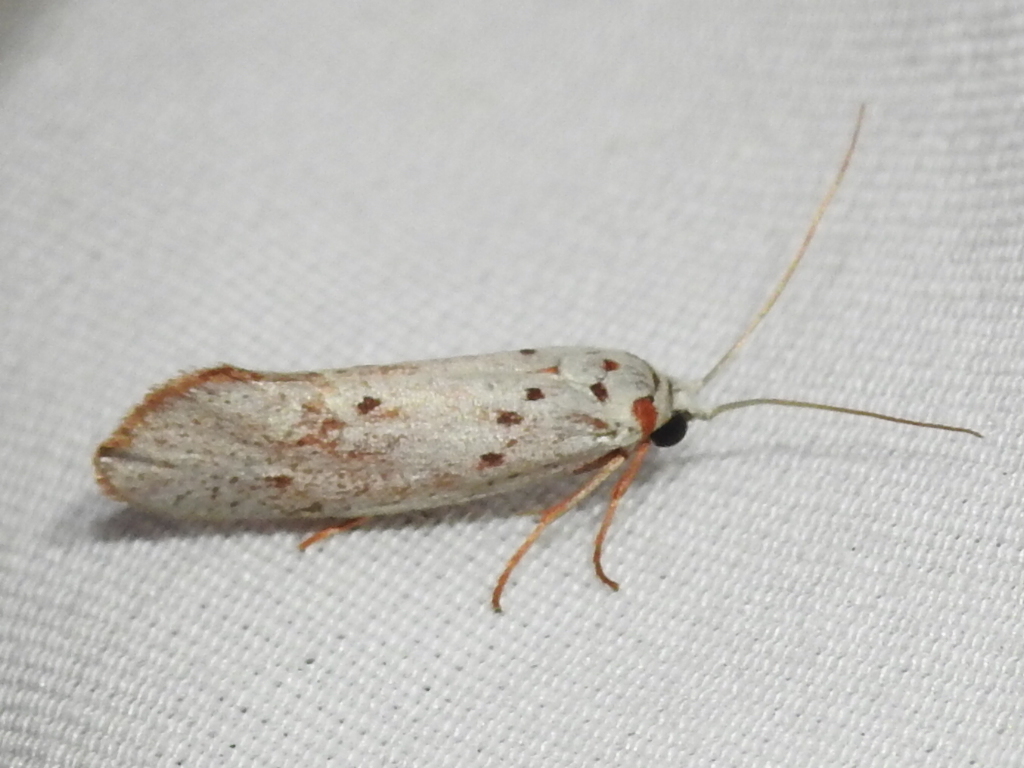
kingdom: Animalia
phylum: Arthropoda
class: Insecta
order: Lepidoptera
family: Lacturidae
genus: Lactura
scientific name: Lactura
